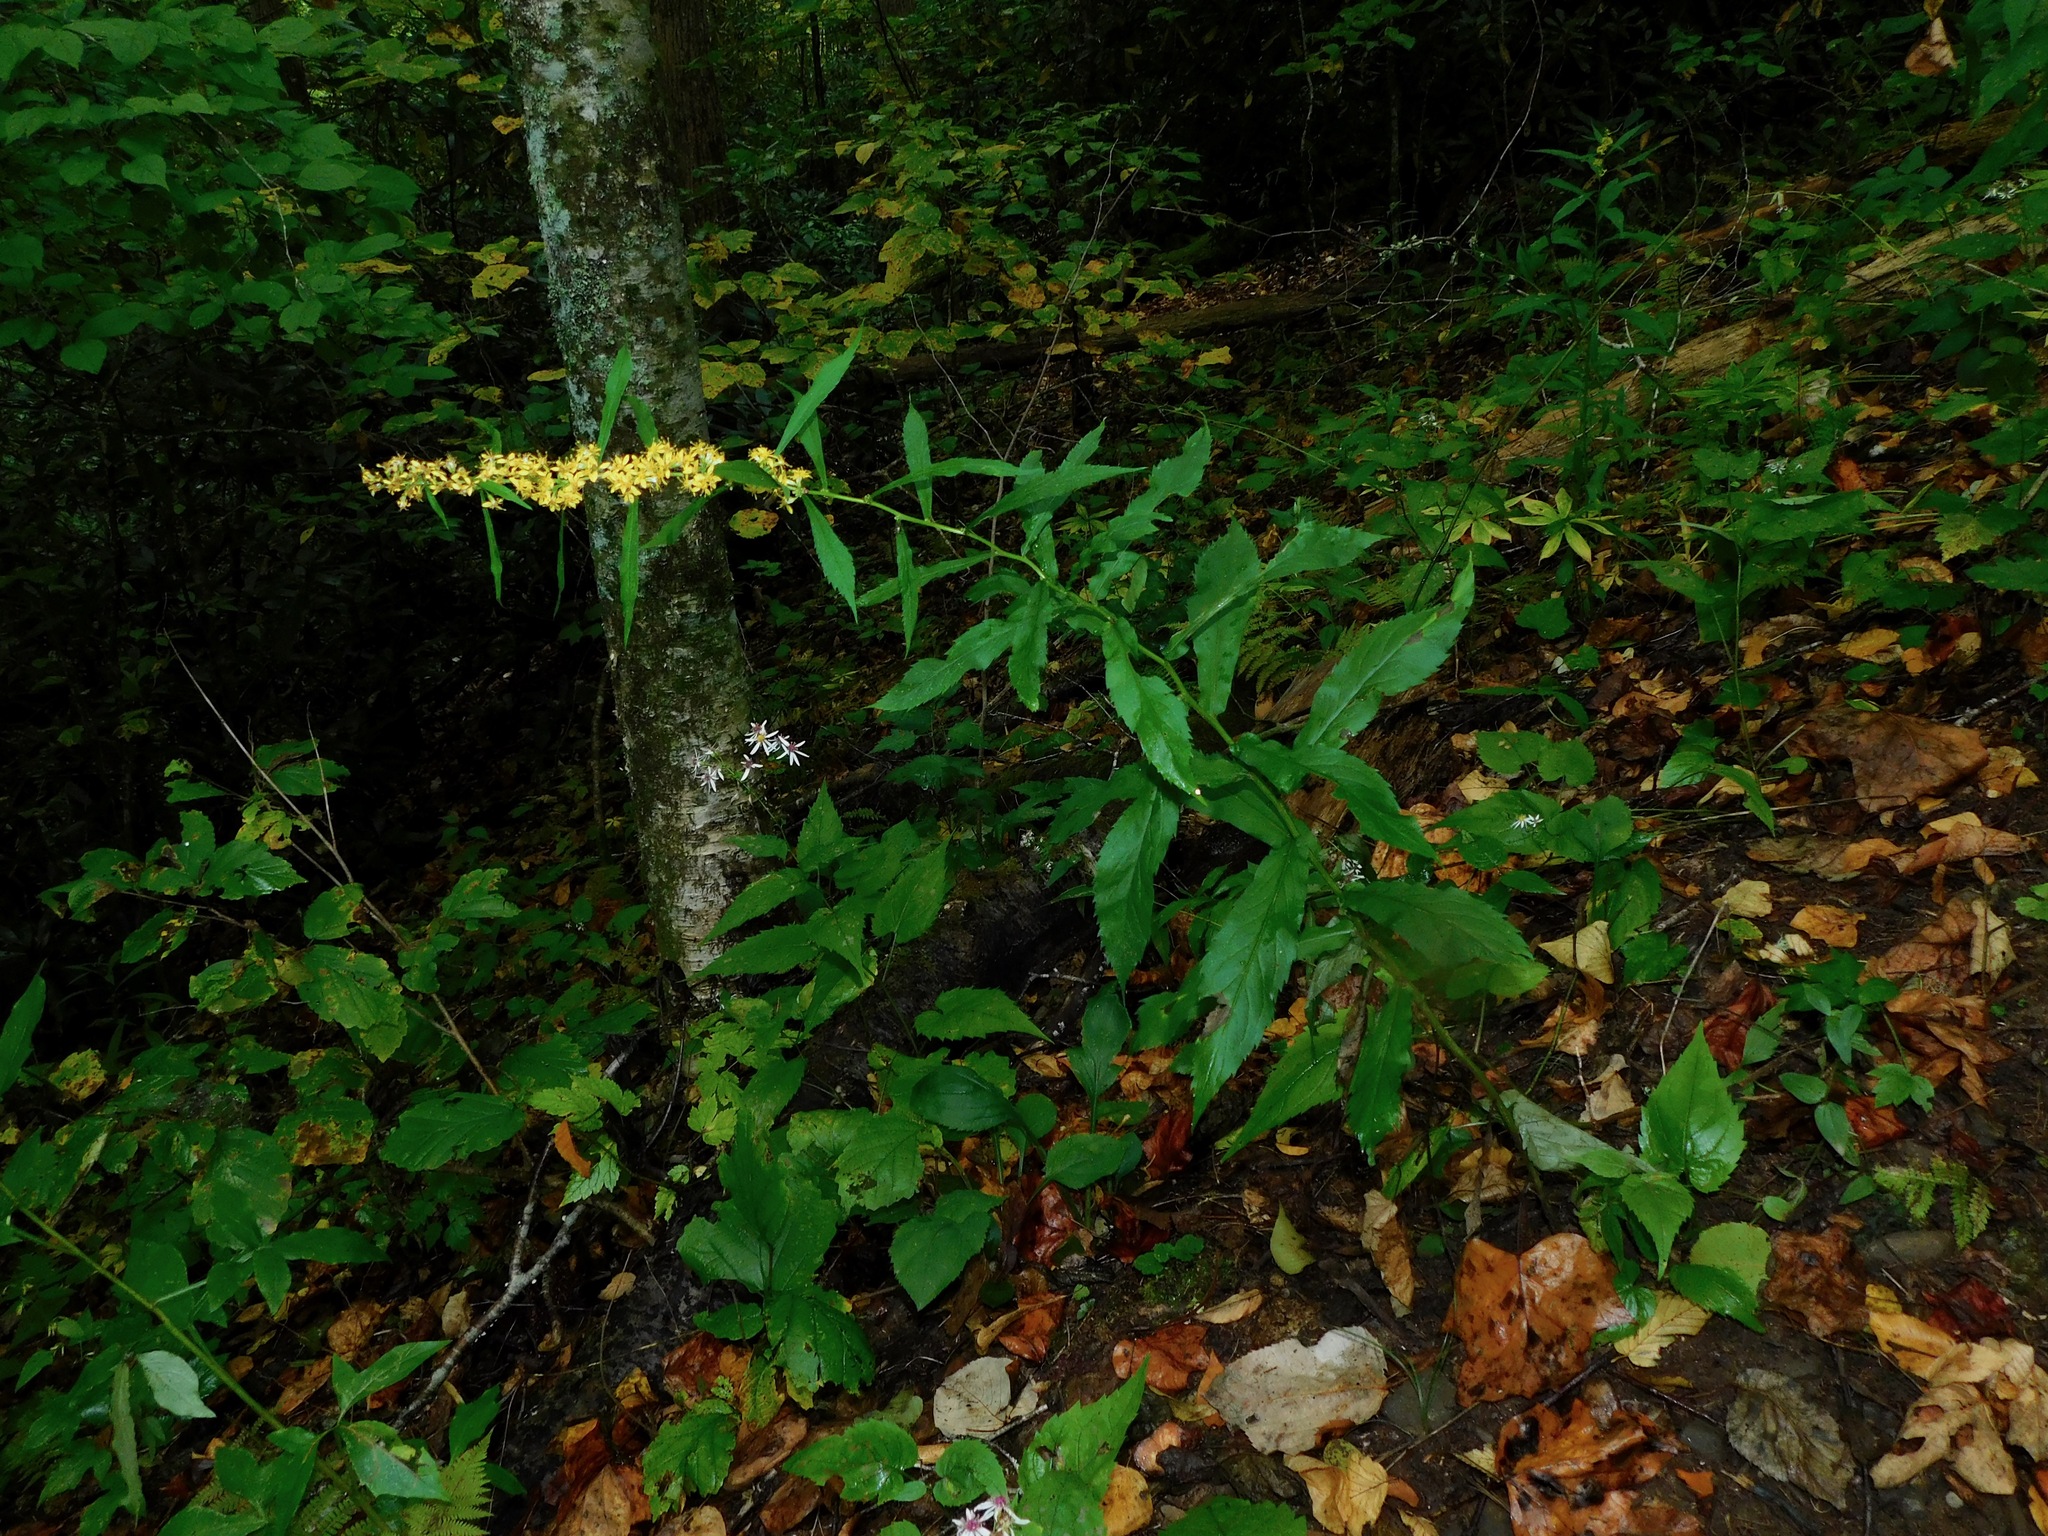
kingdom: Plantae
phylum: Tracheophyta
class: Magnoliopsida
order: Asterales
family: Asteraceae
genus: Solidago
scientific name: Solidago curtisii
